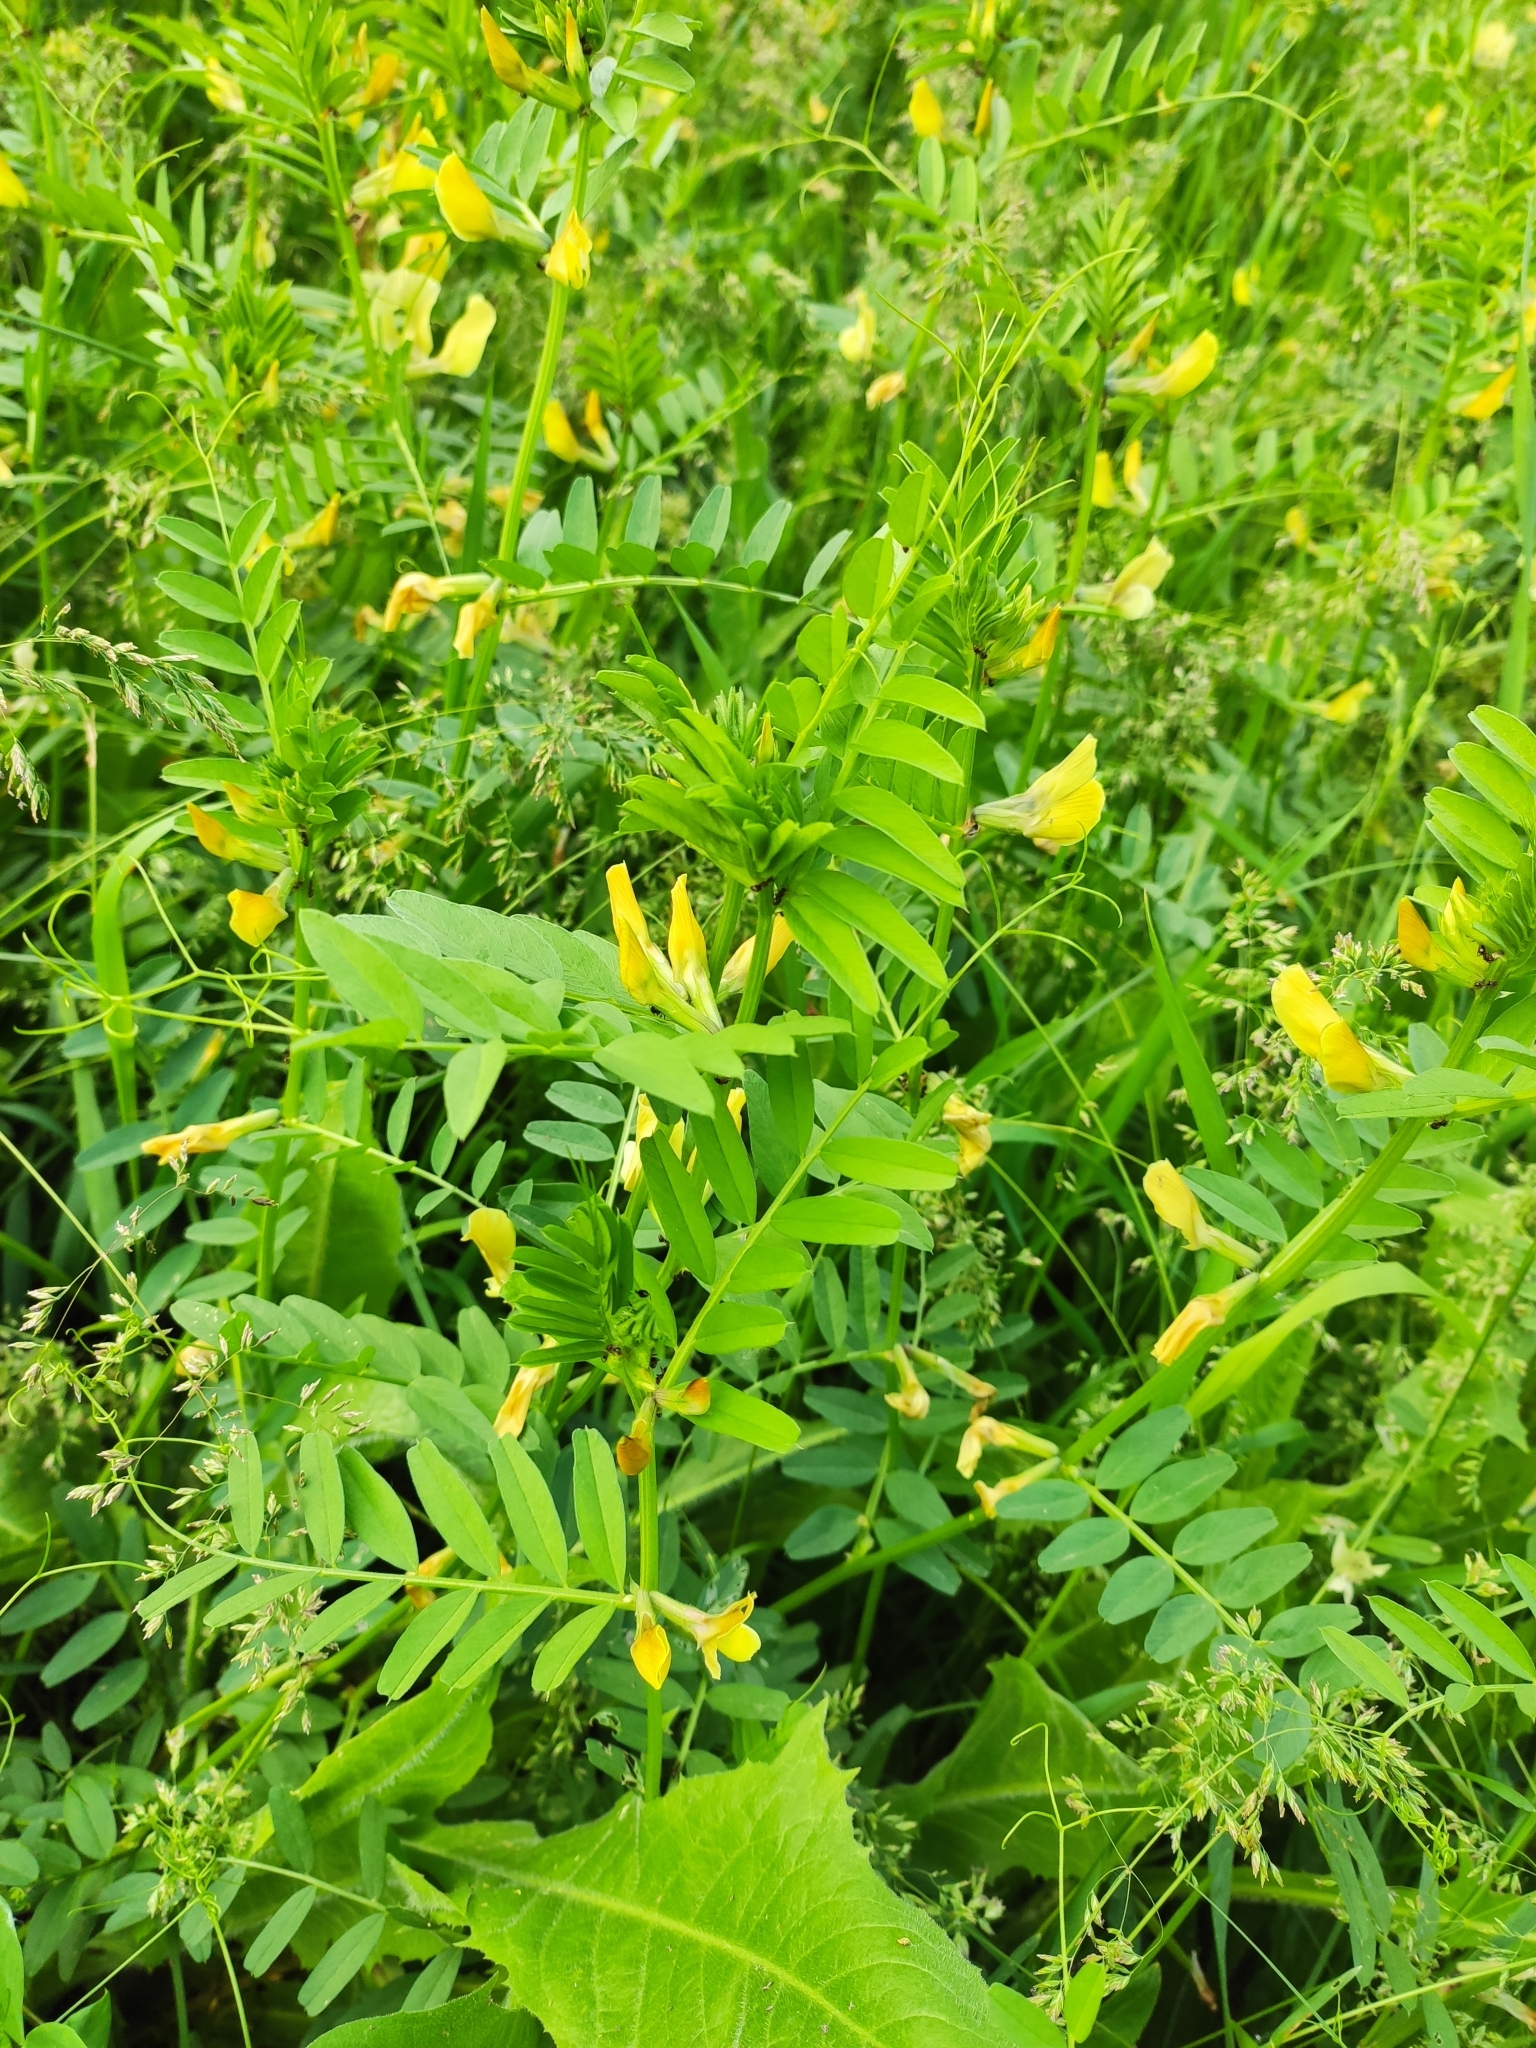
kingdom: Plantae
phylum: Tracheophyta
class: Magnoliopsida
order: Fabales
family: Fabaceae
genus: Vicia
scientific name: Vicia grandiflora
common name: Large yellow vetch
